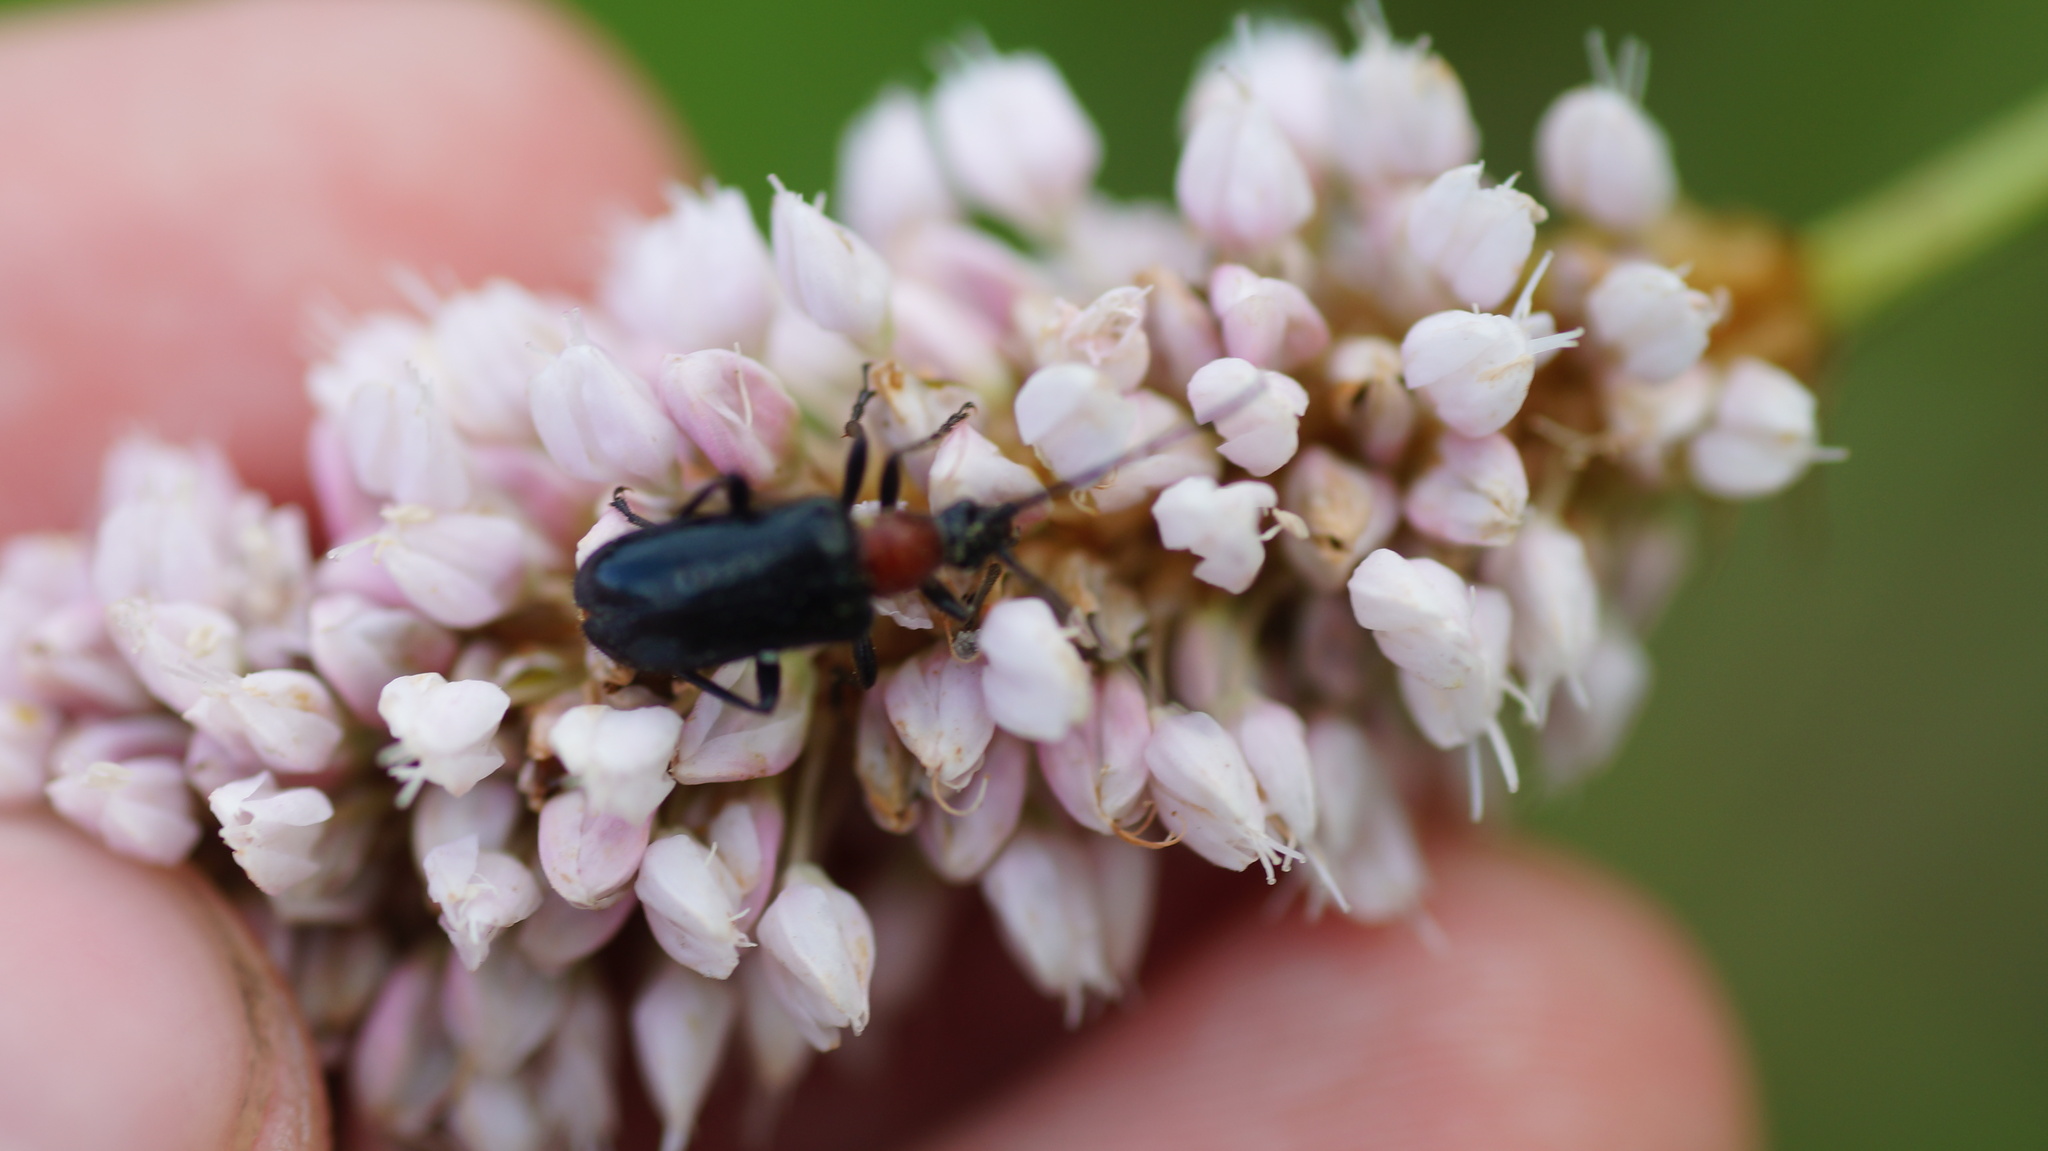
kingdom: Animalia
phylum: Arthropoda
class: Insecta
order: Coleoptera
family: Cerambycidae
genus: Dinoptera
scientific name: Dinoptera collaris
